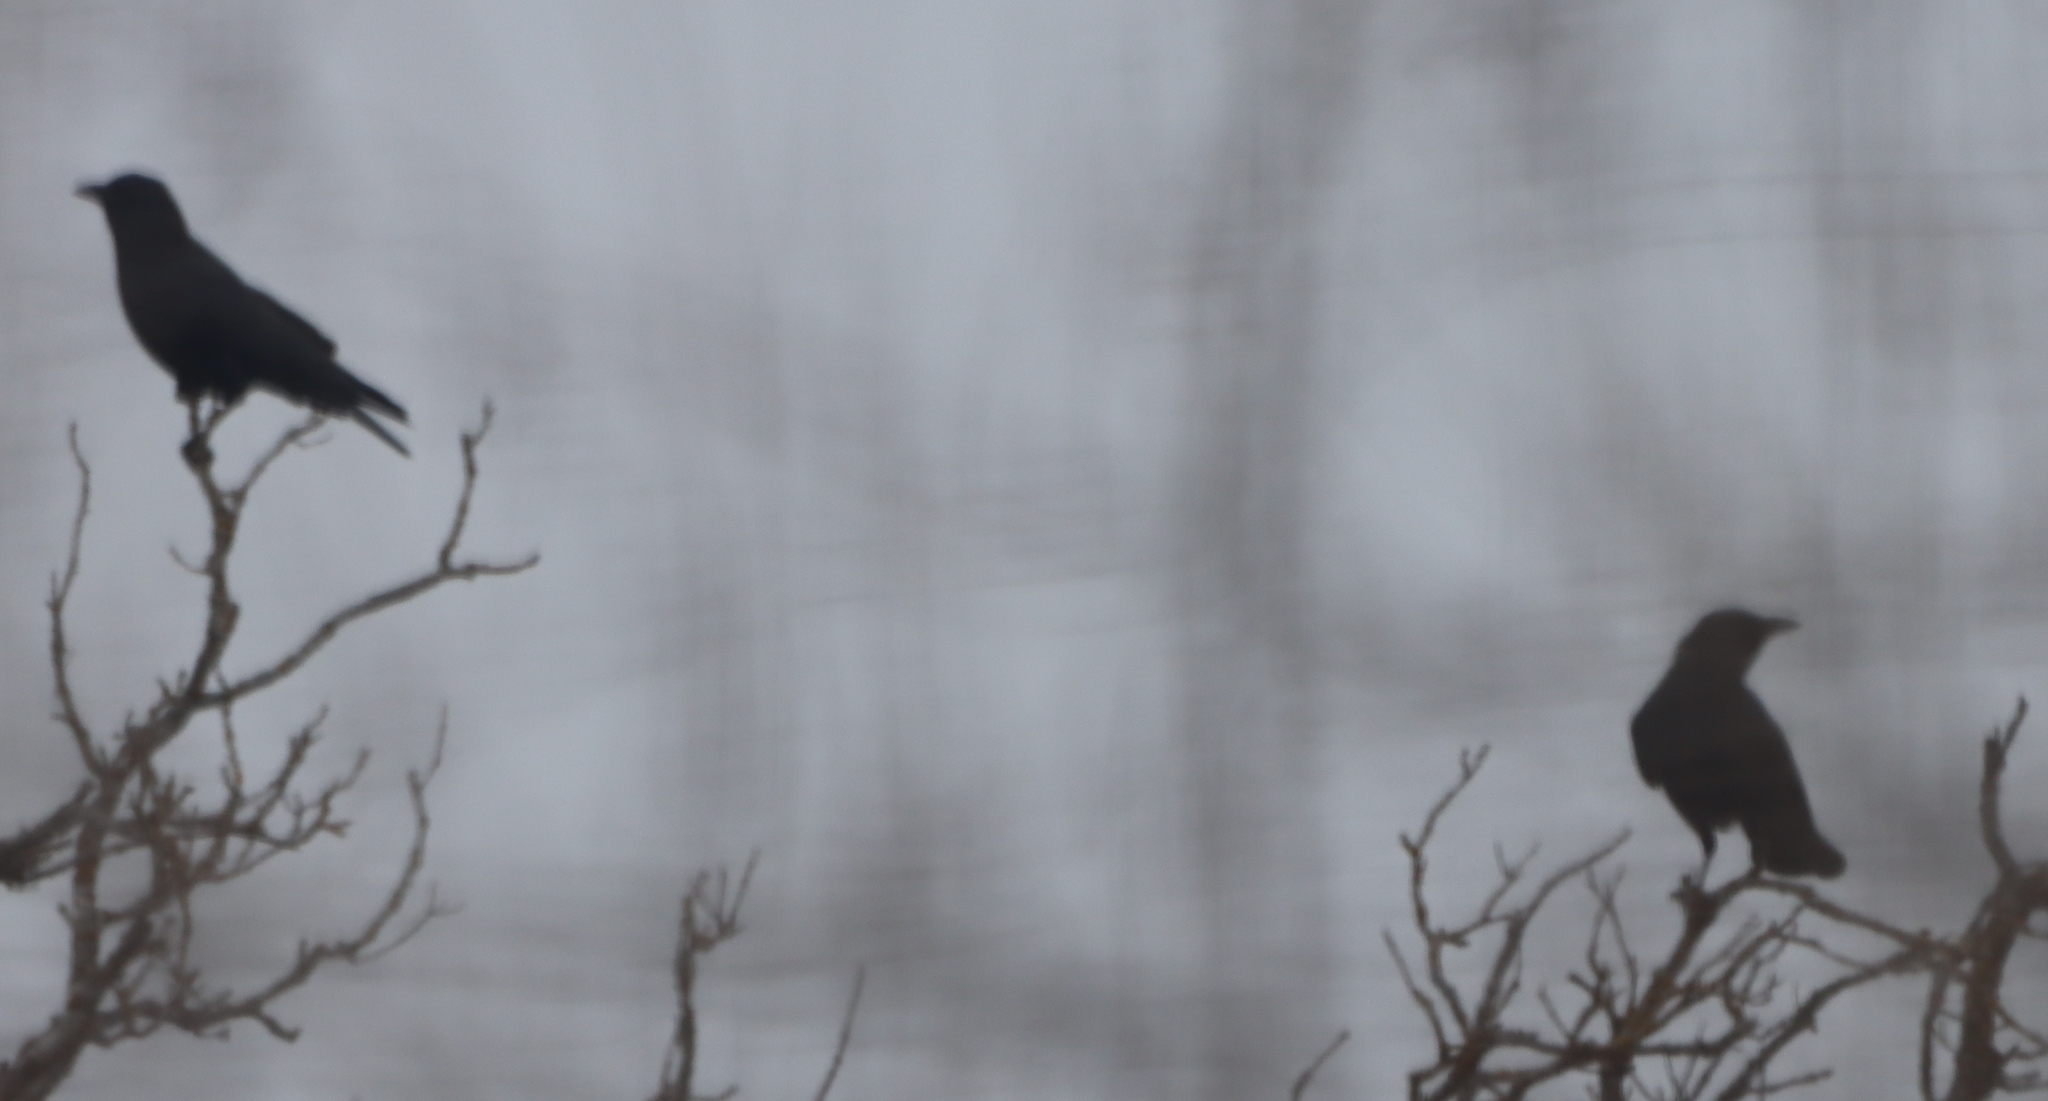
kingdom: Animalia
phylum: Chordata
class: Aves
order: Passeriformes
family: Corvidae
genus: Corvus
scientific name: Corvus brachyrhynchos
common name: American crow
